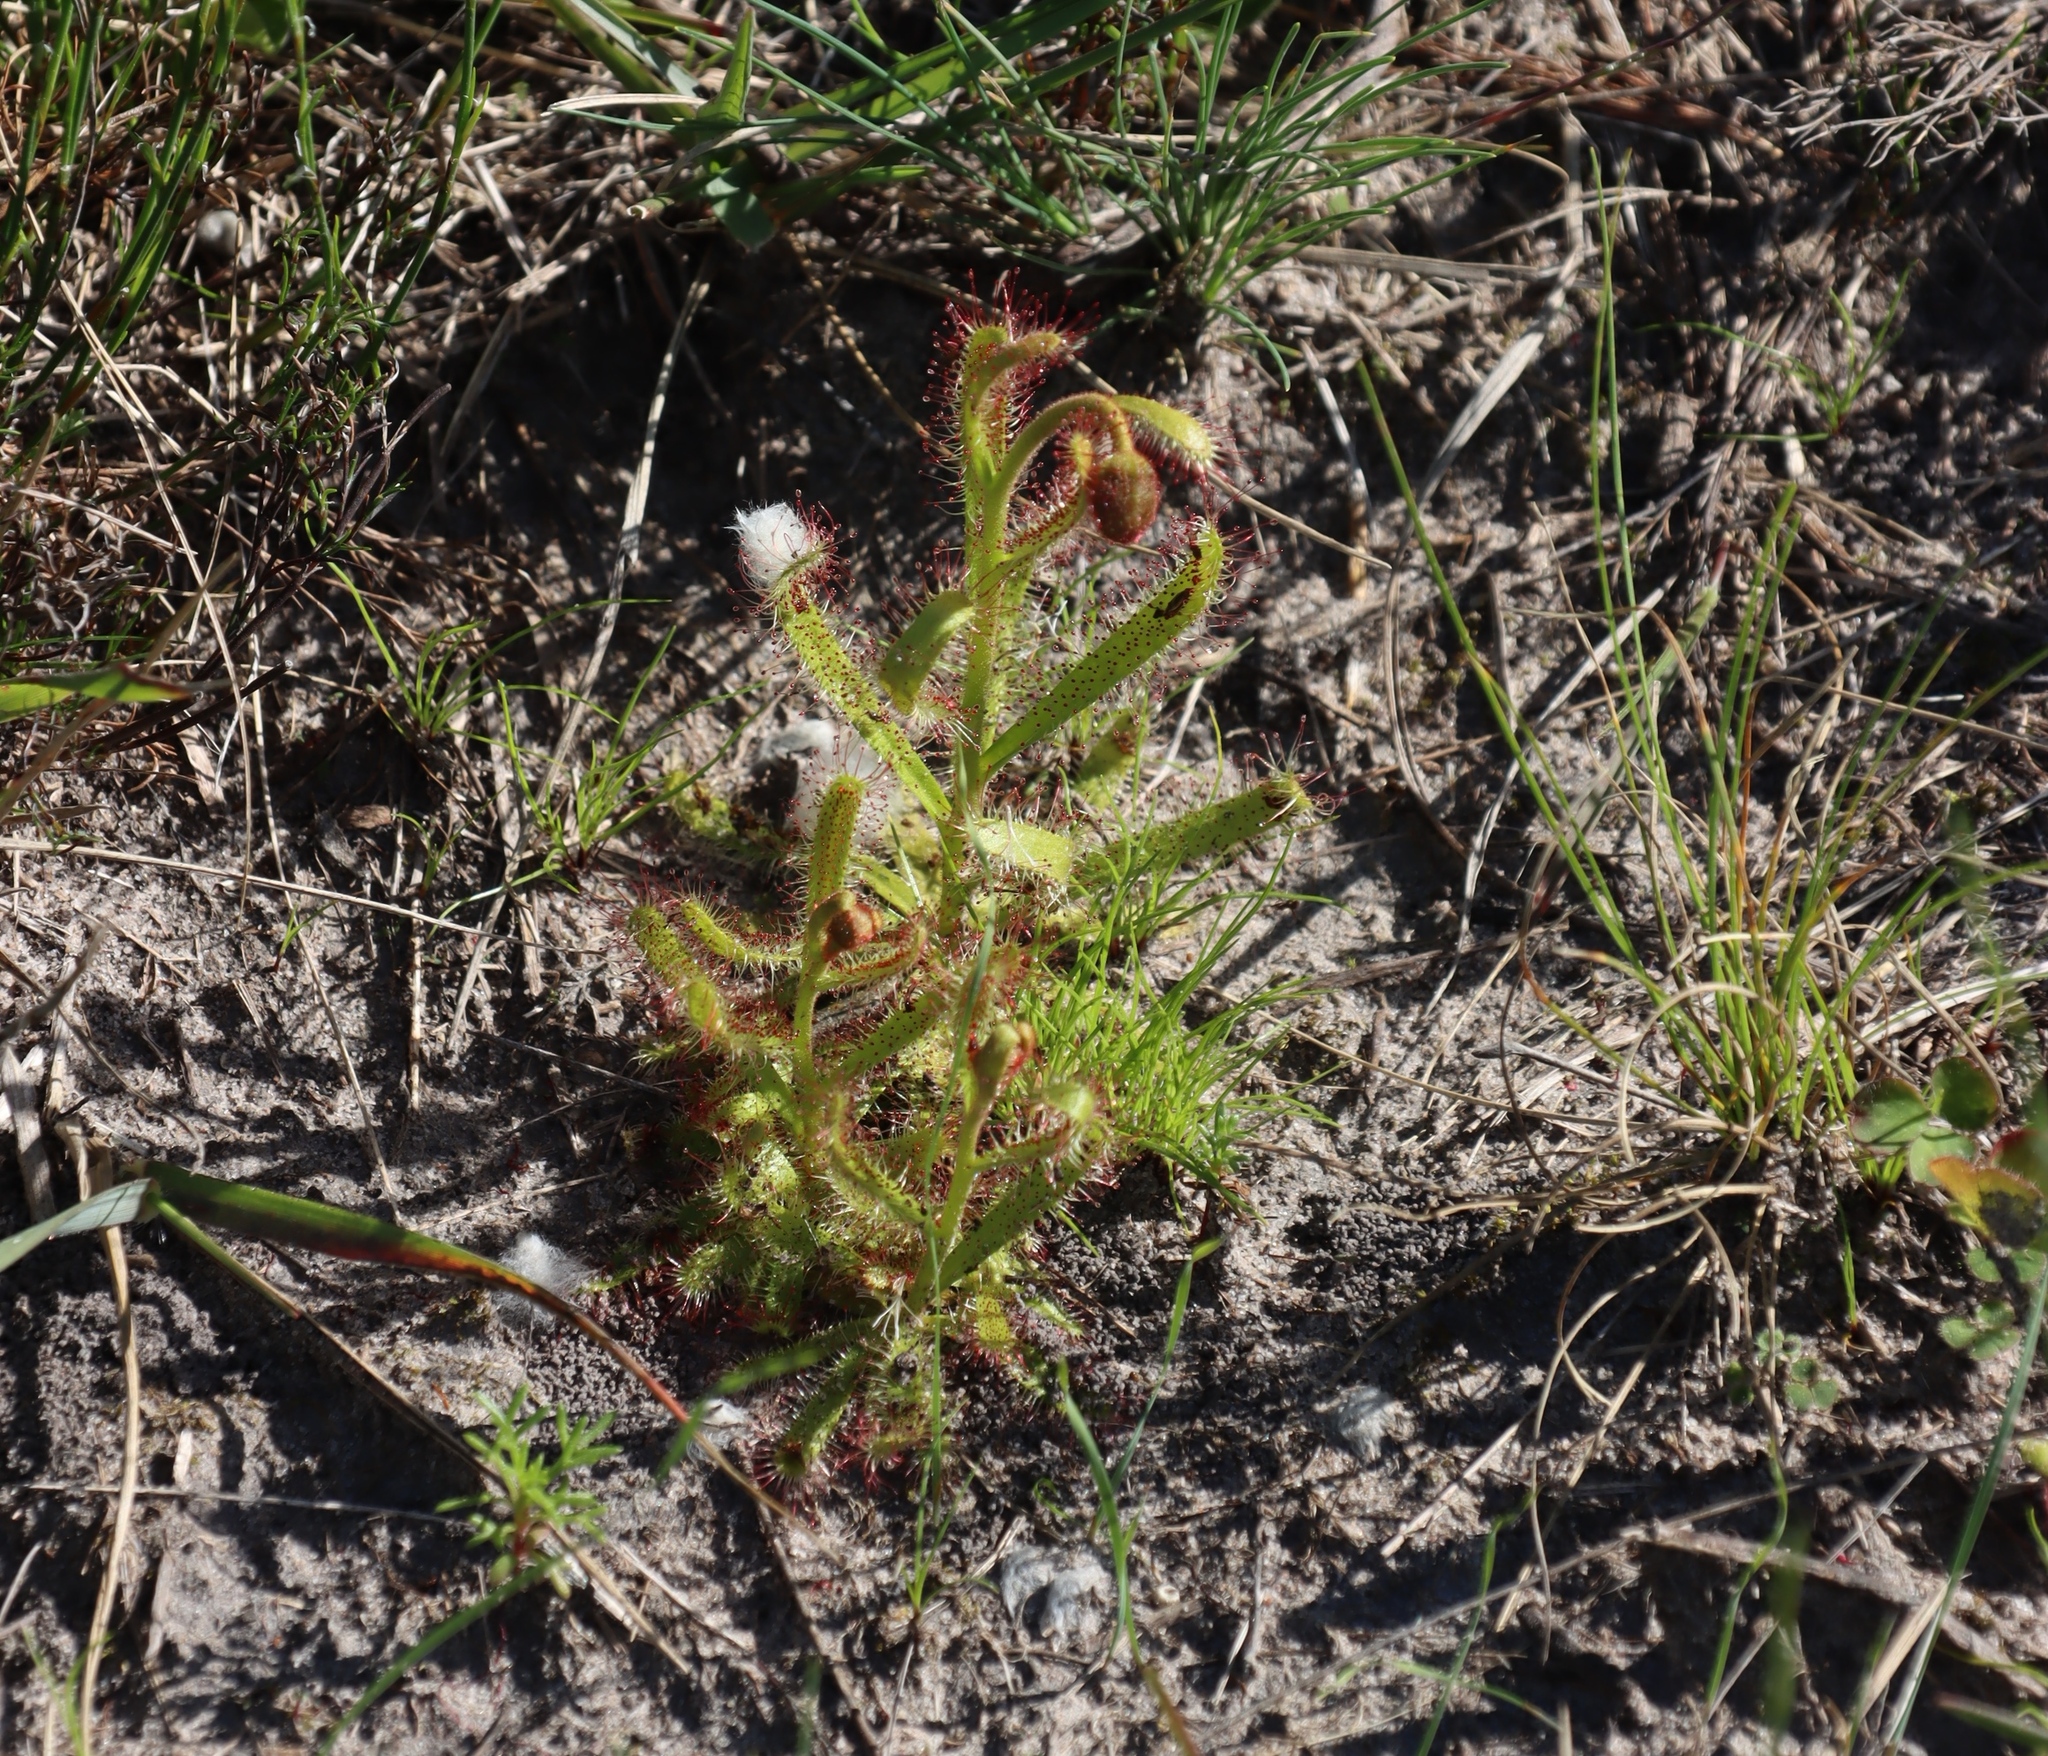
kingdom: Plantae
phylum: Tracheophyta
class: Magnoliopsida
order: Caryophyllales
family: Droseraceae
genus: Drosera
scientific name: Drosera cistiflora
